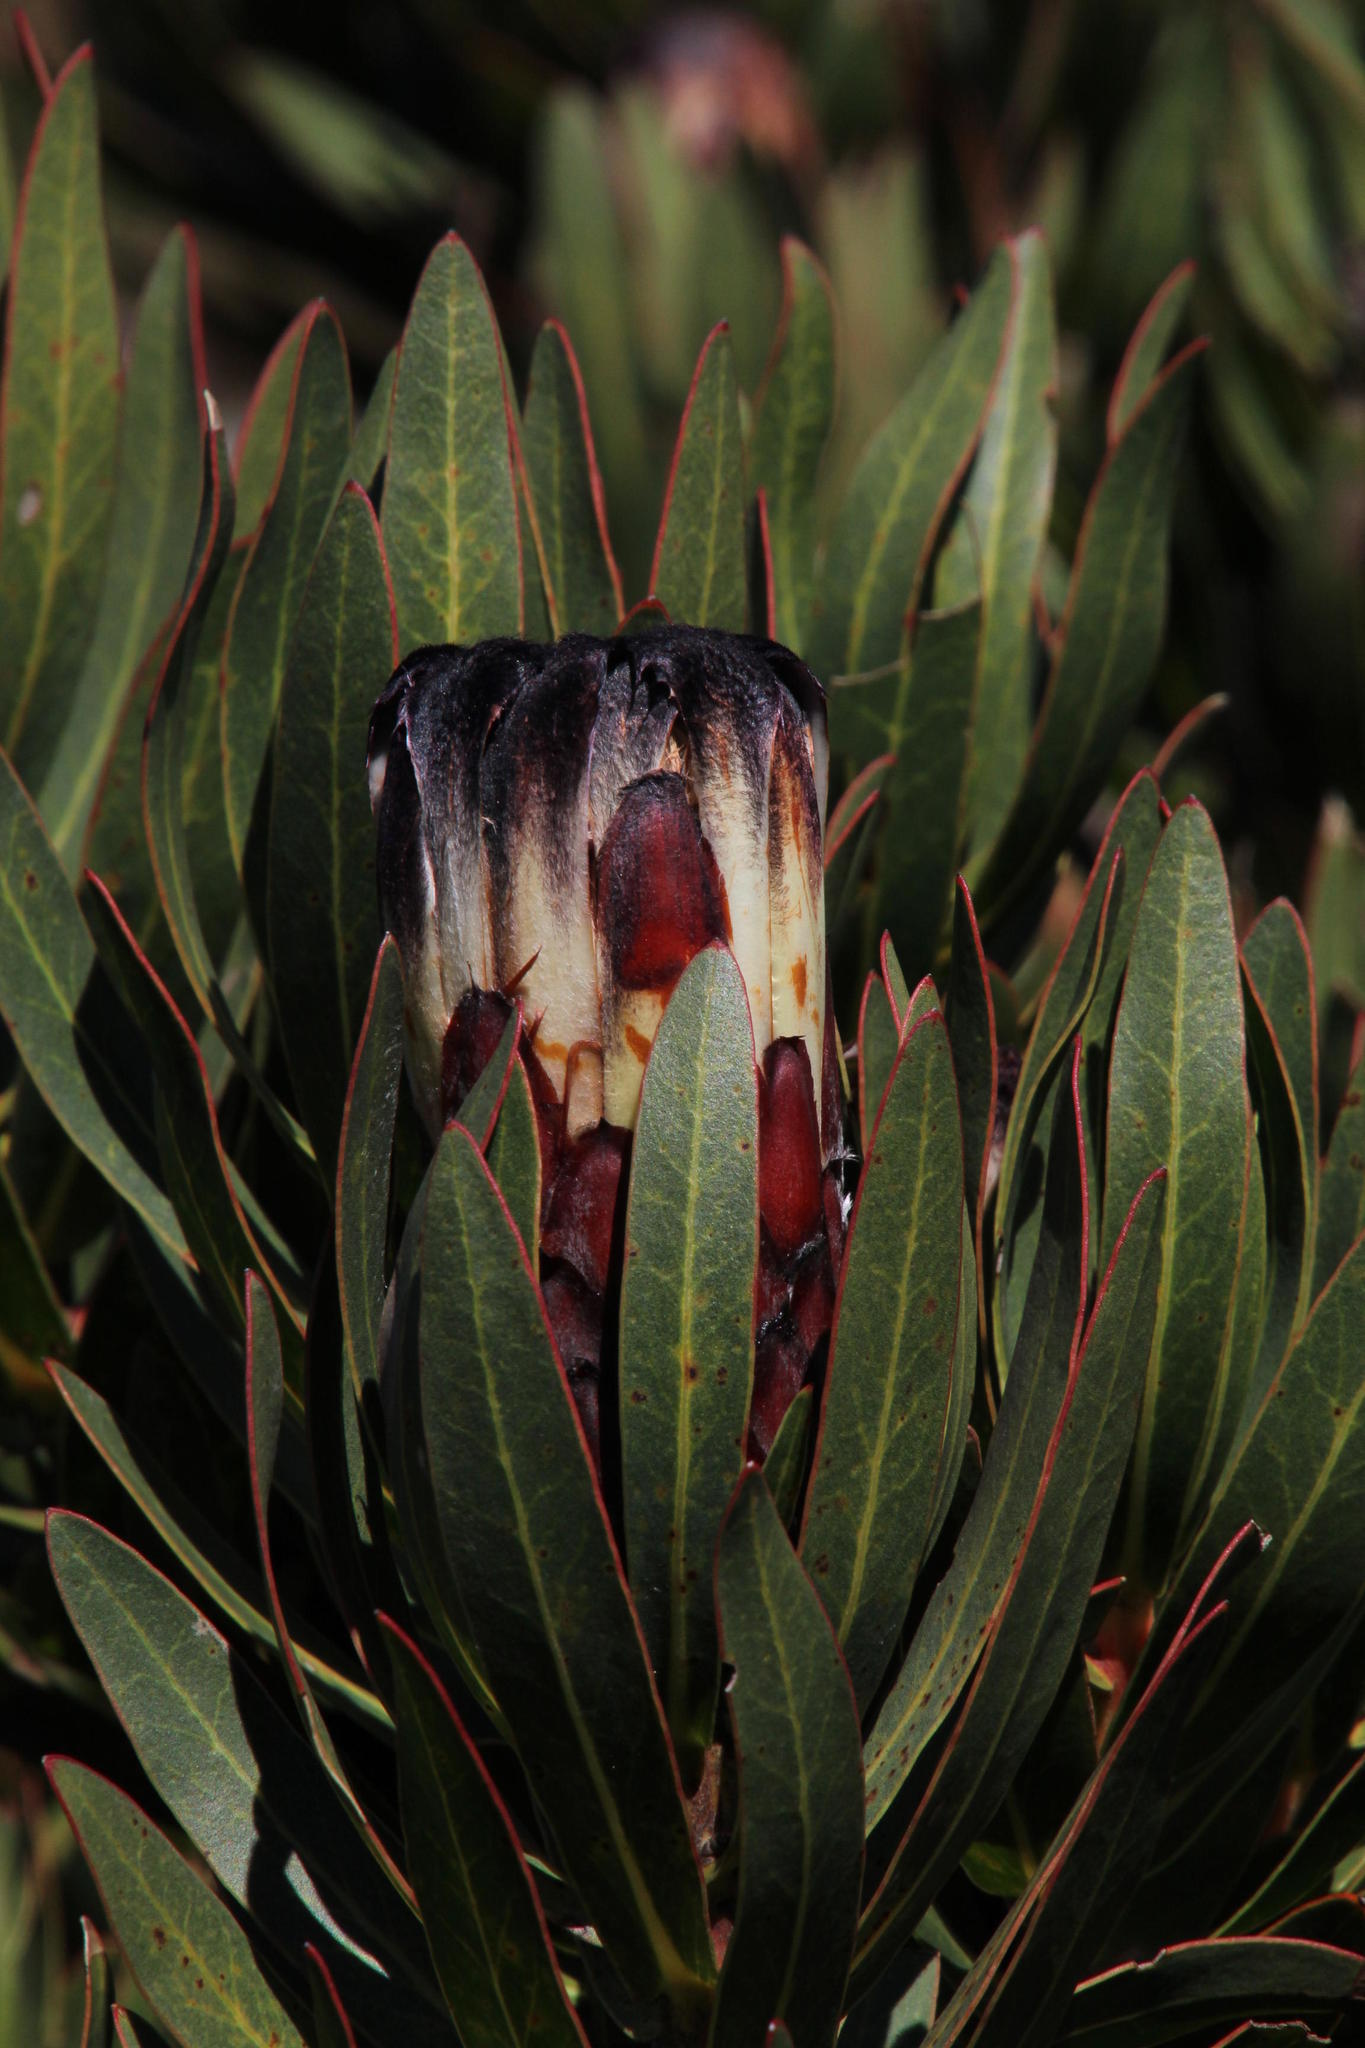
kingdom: Plantae
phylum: Tracheophyta
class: Magnoliopsida
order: Proteales
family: Proteaceae
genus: Protea
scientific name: Protea lepidocarpodendron
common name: Black-bearded protea
